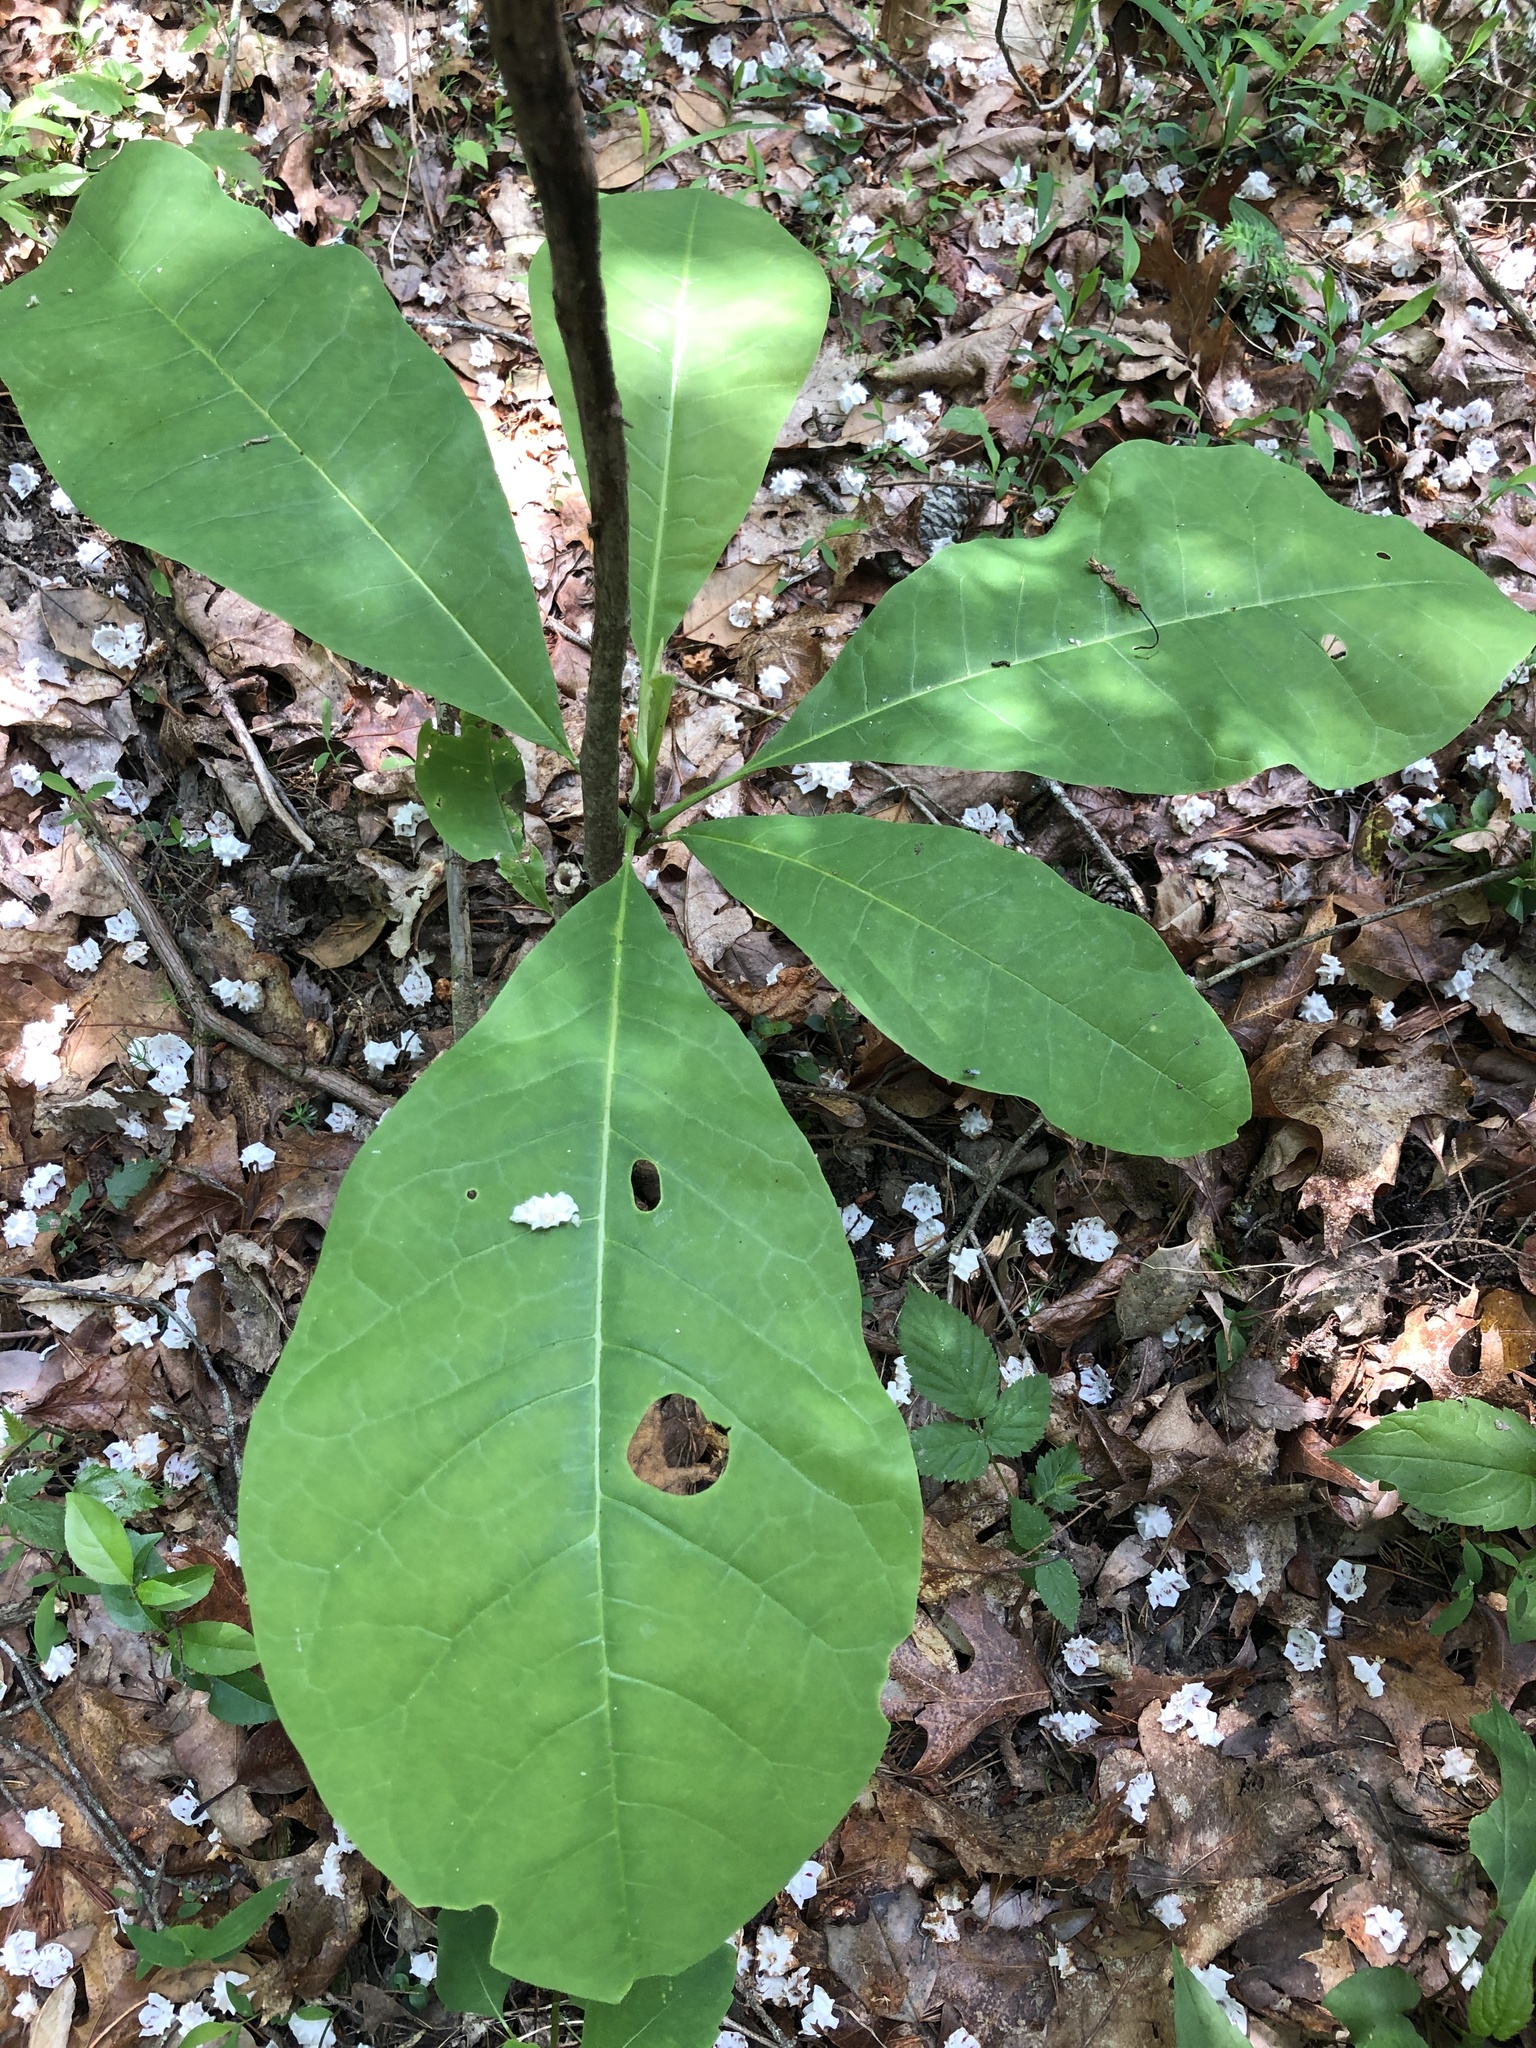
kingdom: Plantae
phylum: Tracheophyta
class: Magnoliopsida
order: Magnoliales
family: Magnoliaceae
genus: Magnolia
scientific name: Magnolia tripetala
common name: Umbrella magnolia
